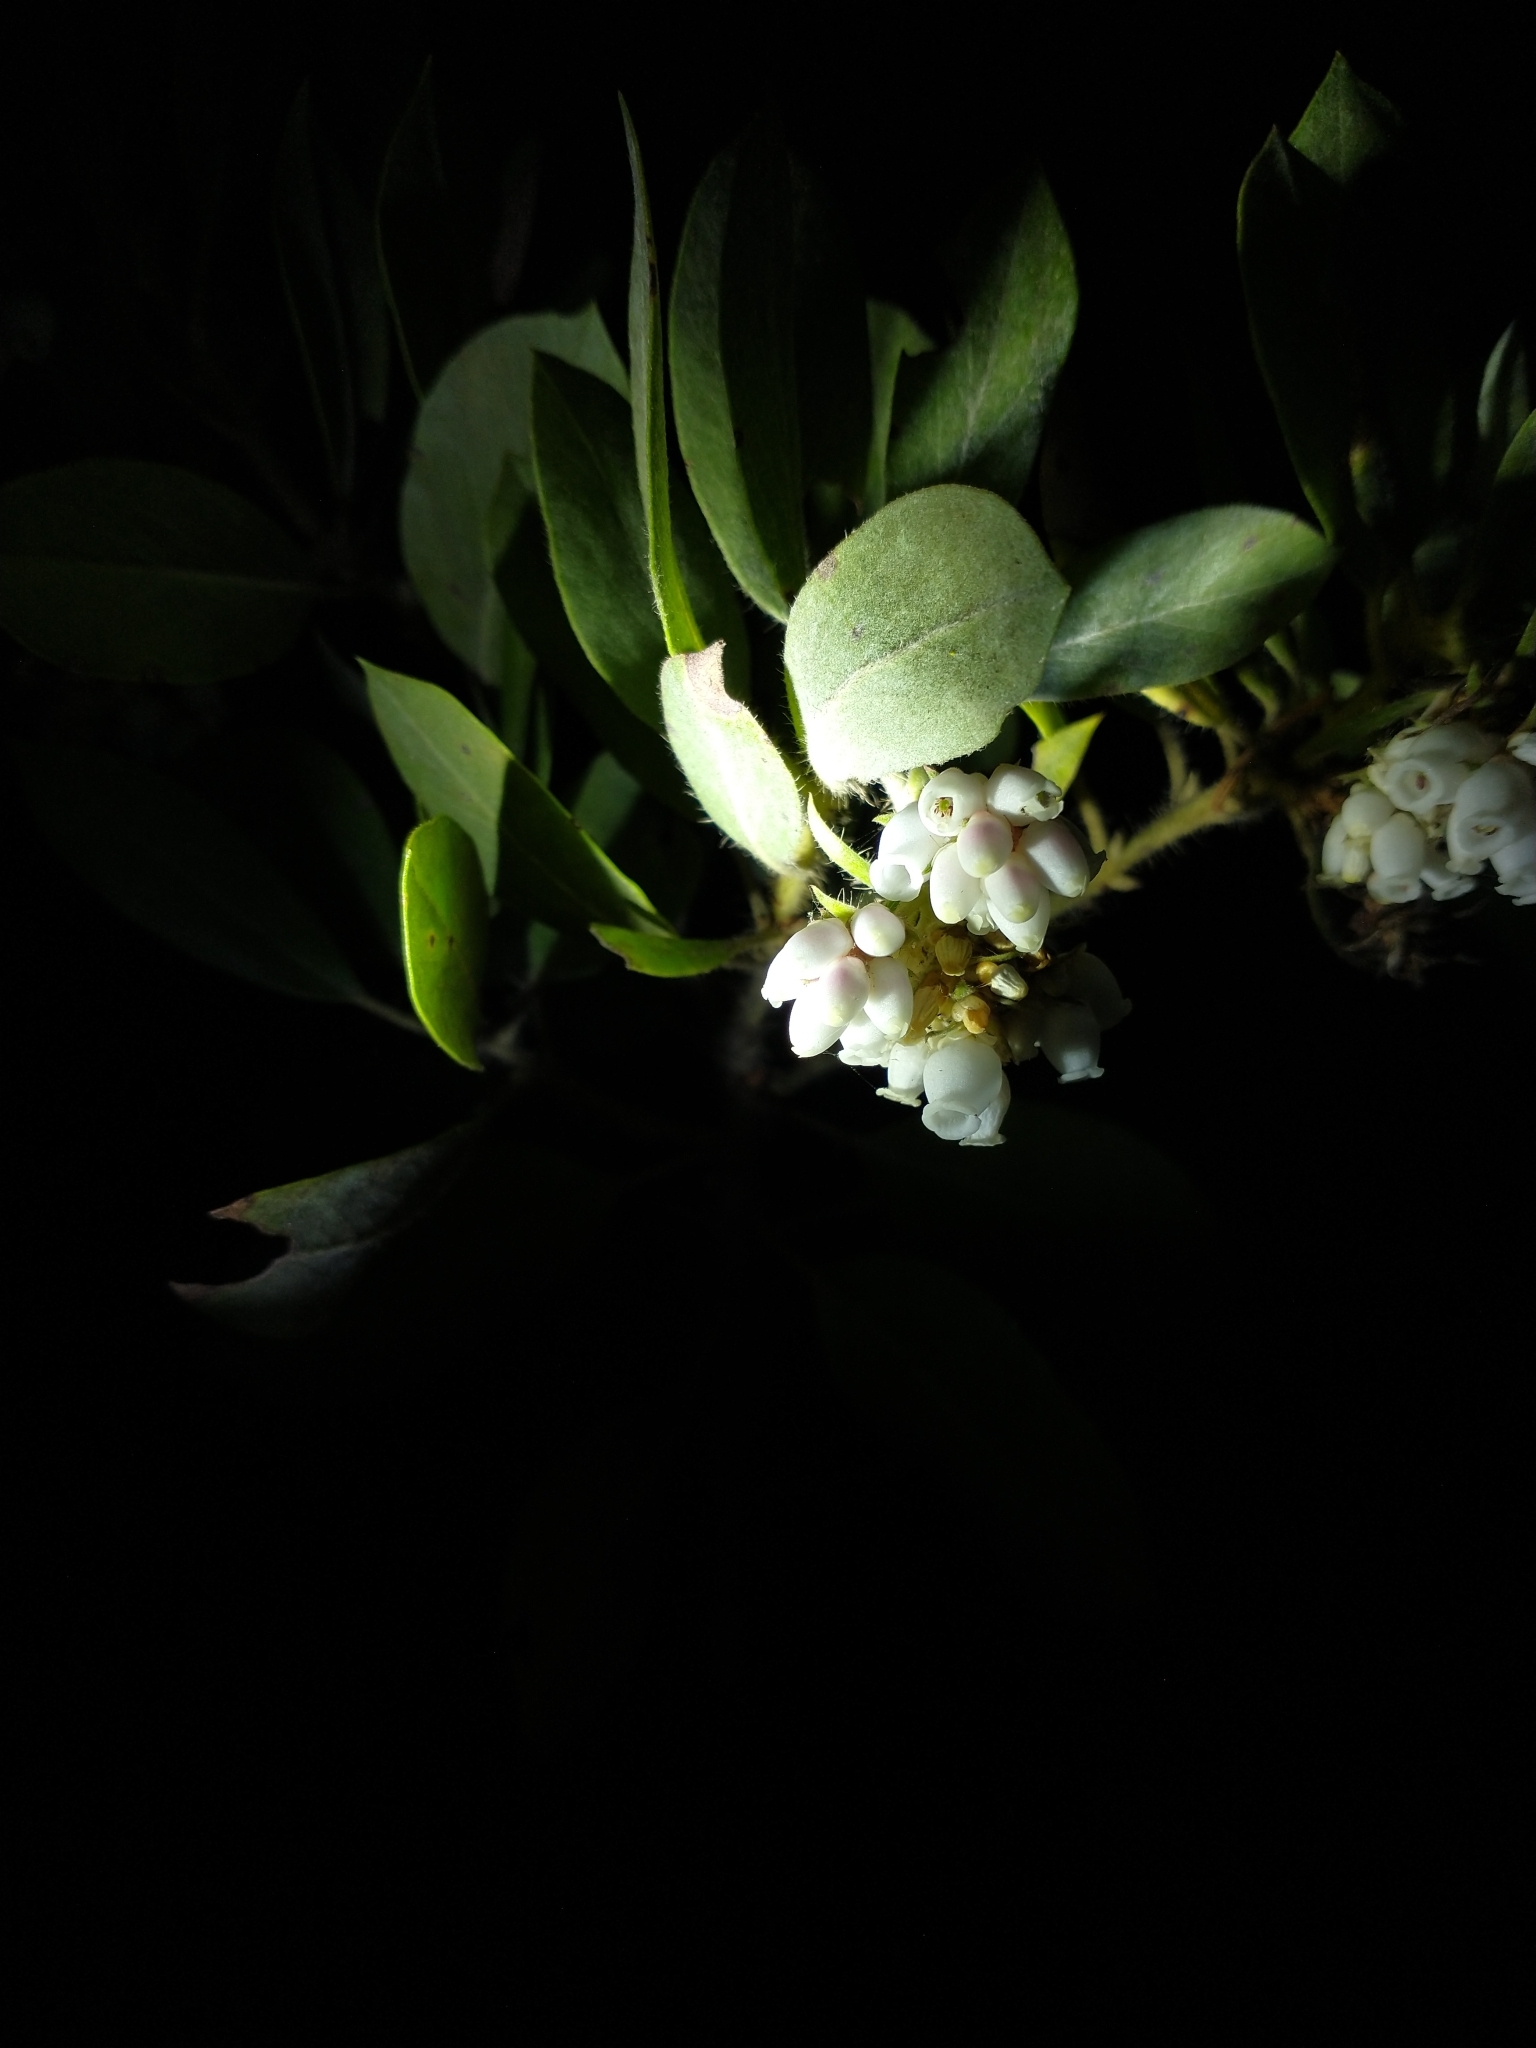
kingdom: Plantae
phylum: Tracheophyta
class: Magnoliopsida
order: Ericales
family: Ericaceae
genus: Arctostaphylos
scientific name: Arctostaphylos columbiana
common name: Bristly bearberry
